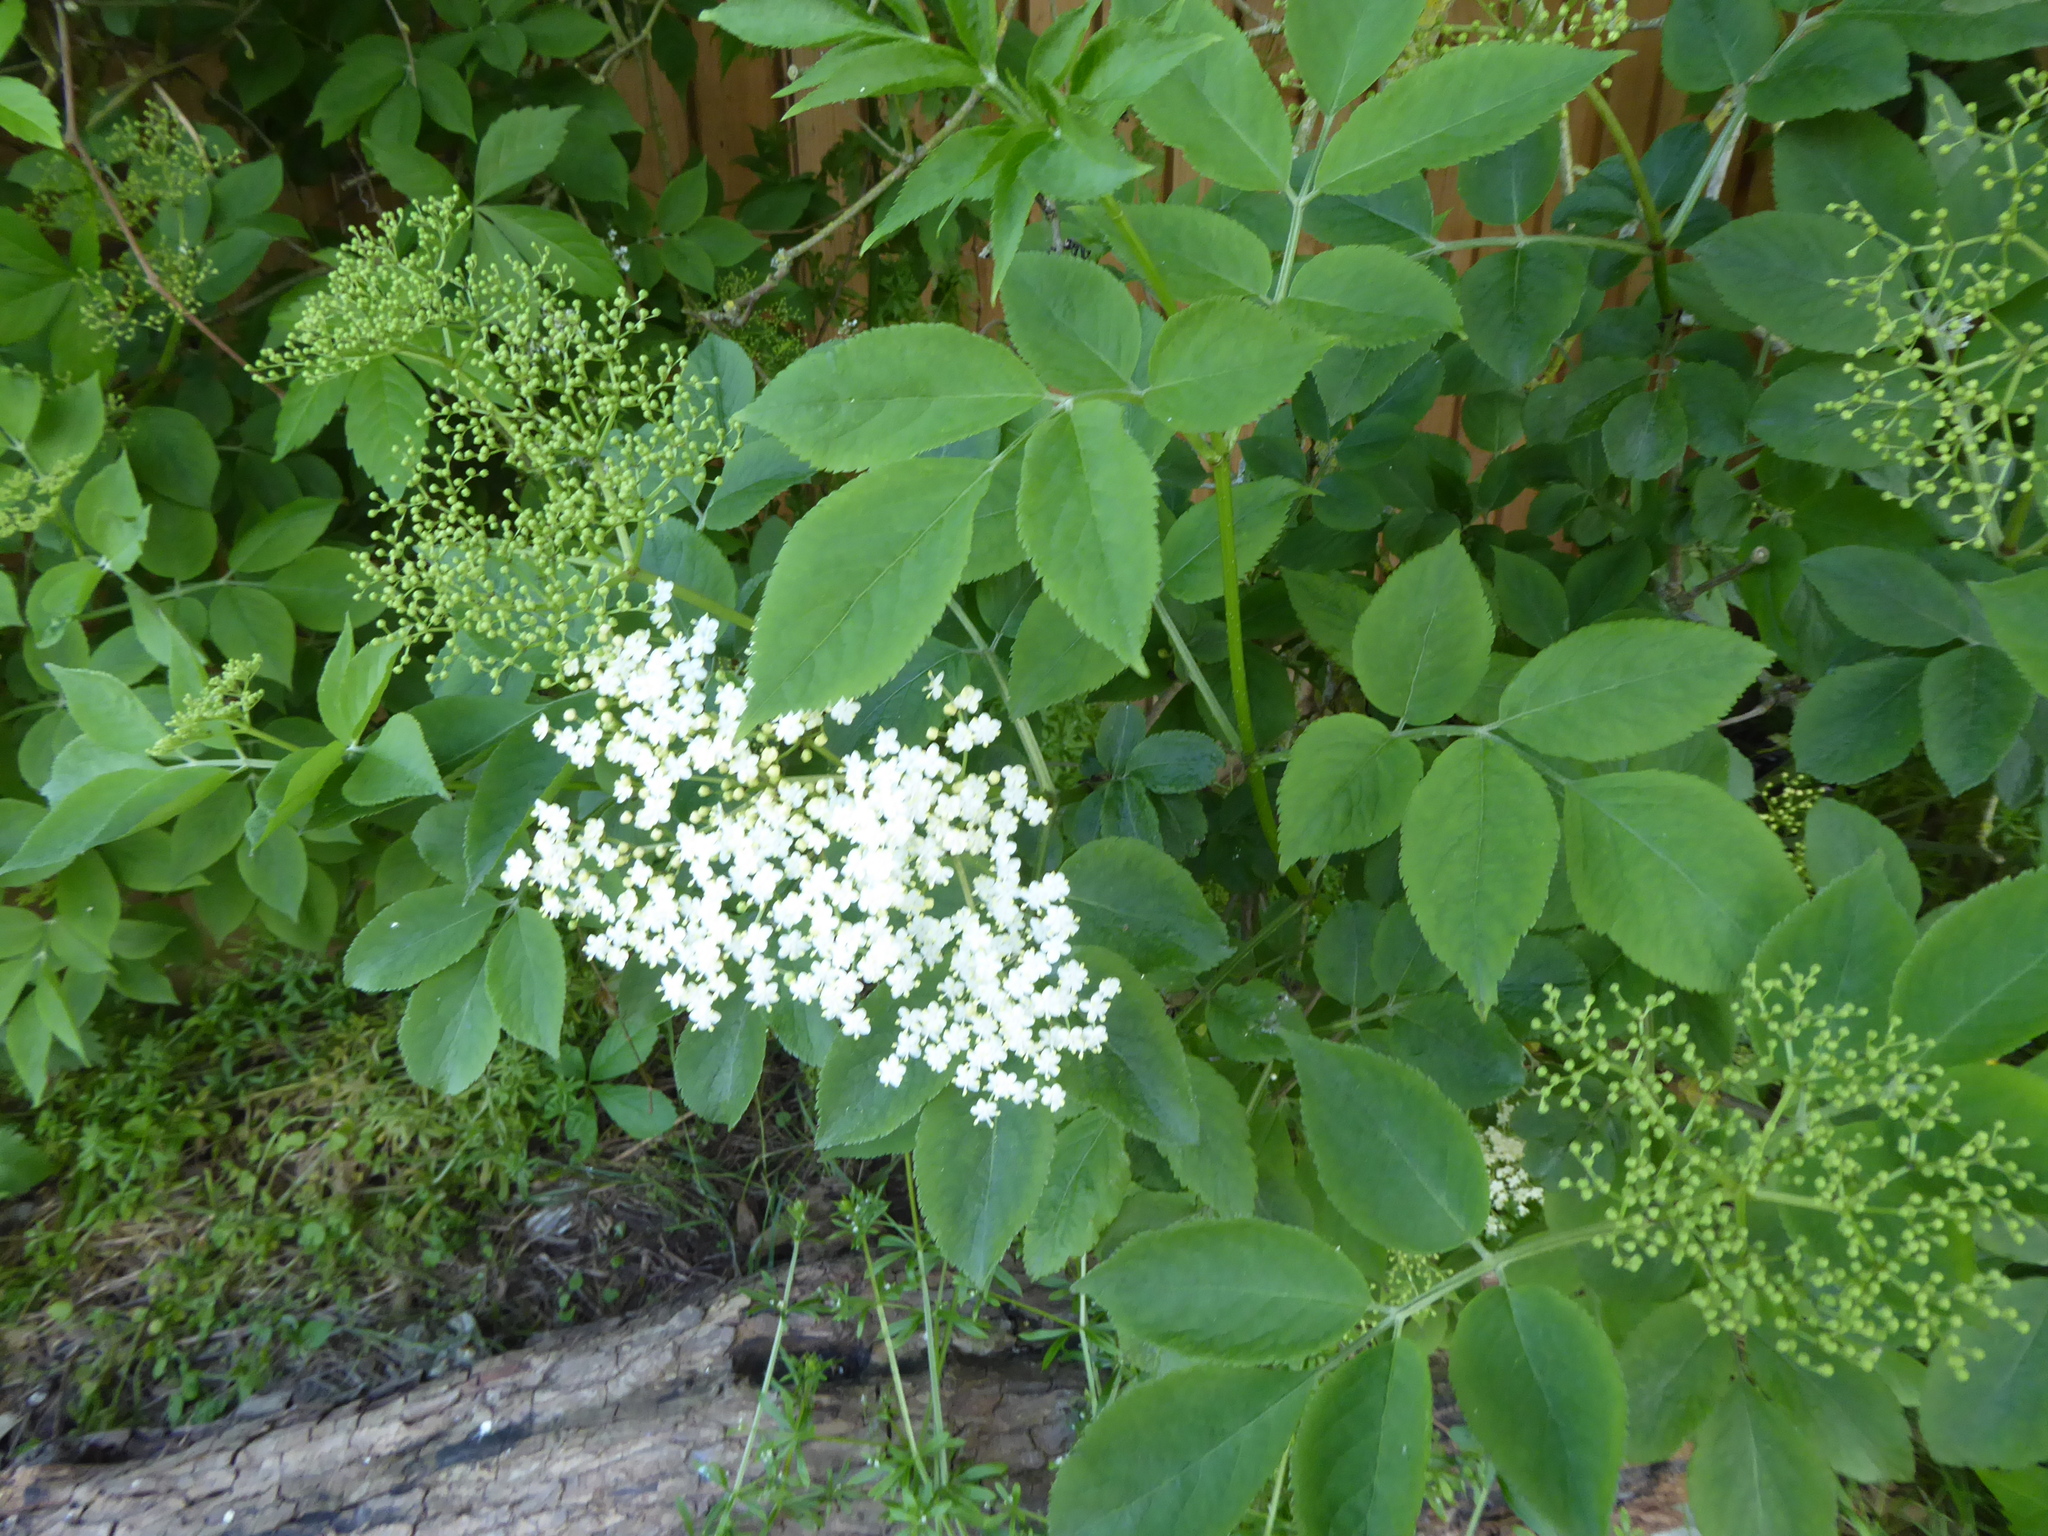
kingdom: Plantae
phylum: Tracheophyta
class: Magnoliopsida
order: Dipsacales
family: Viburnaceae
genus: Sambucus
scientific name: Sambucus nigra
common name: Elder
